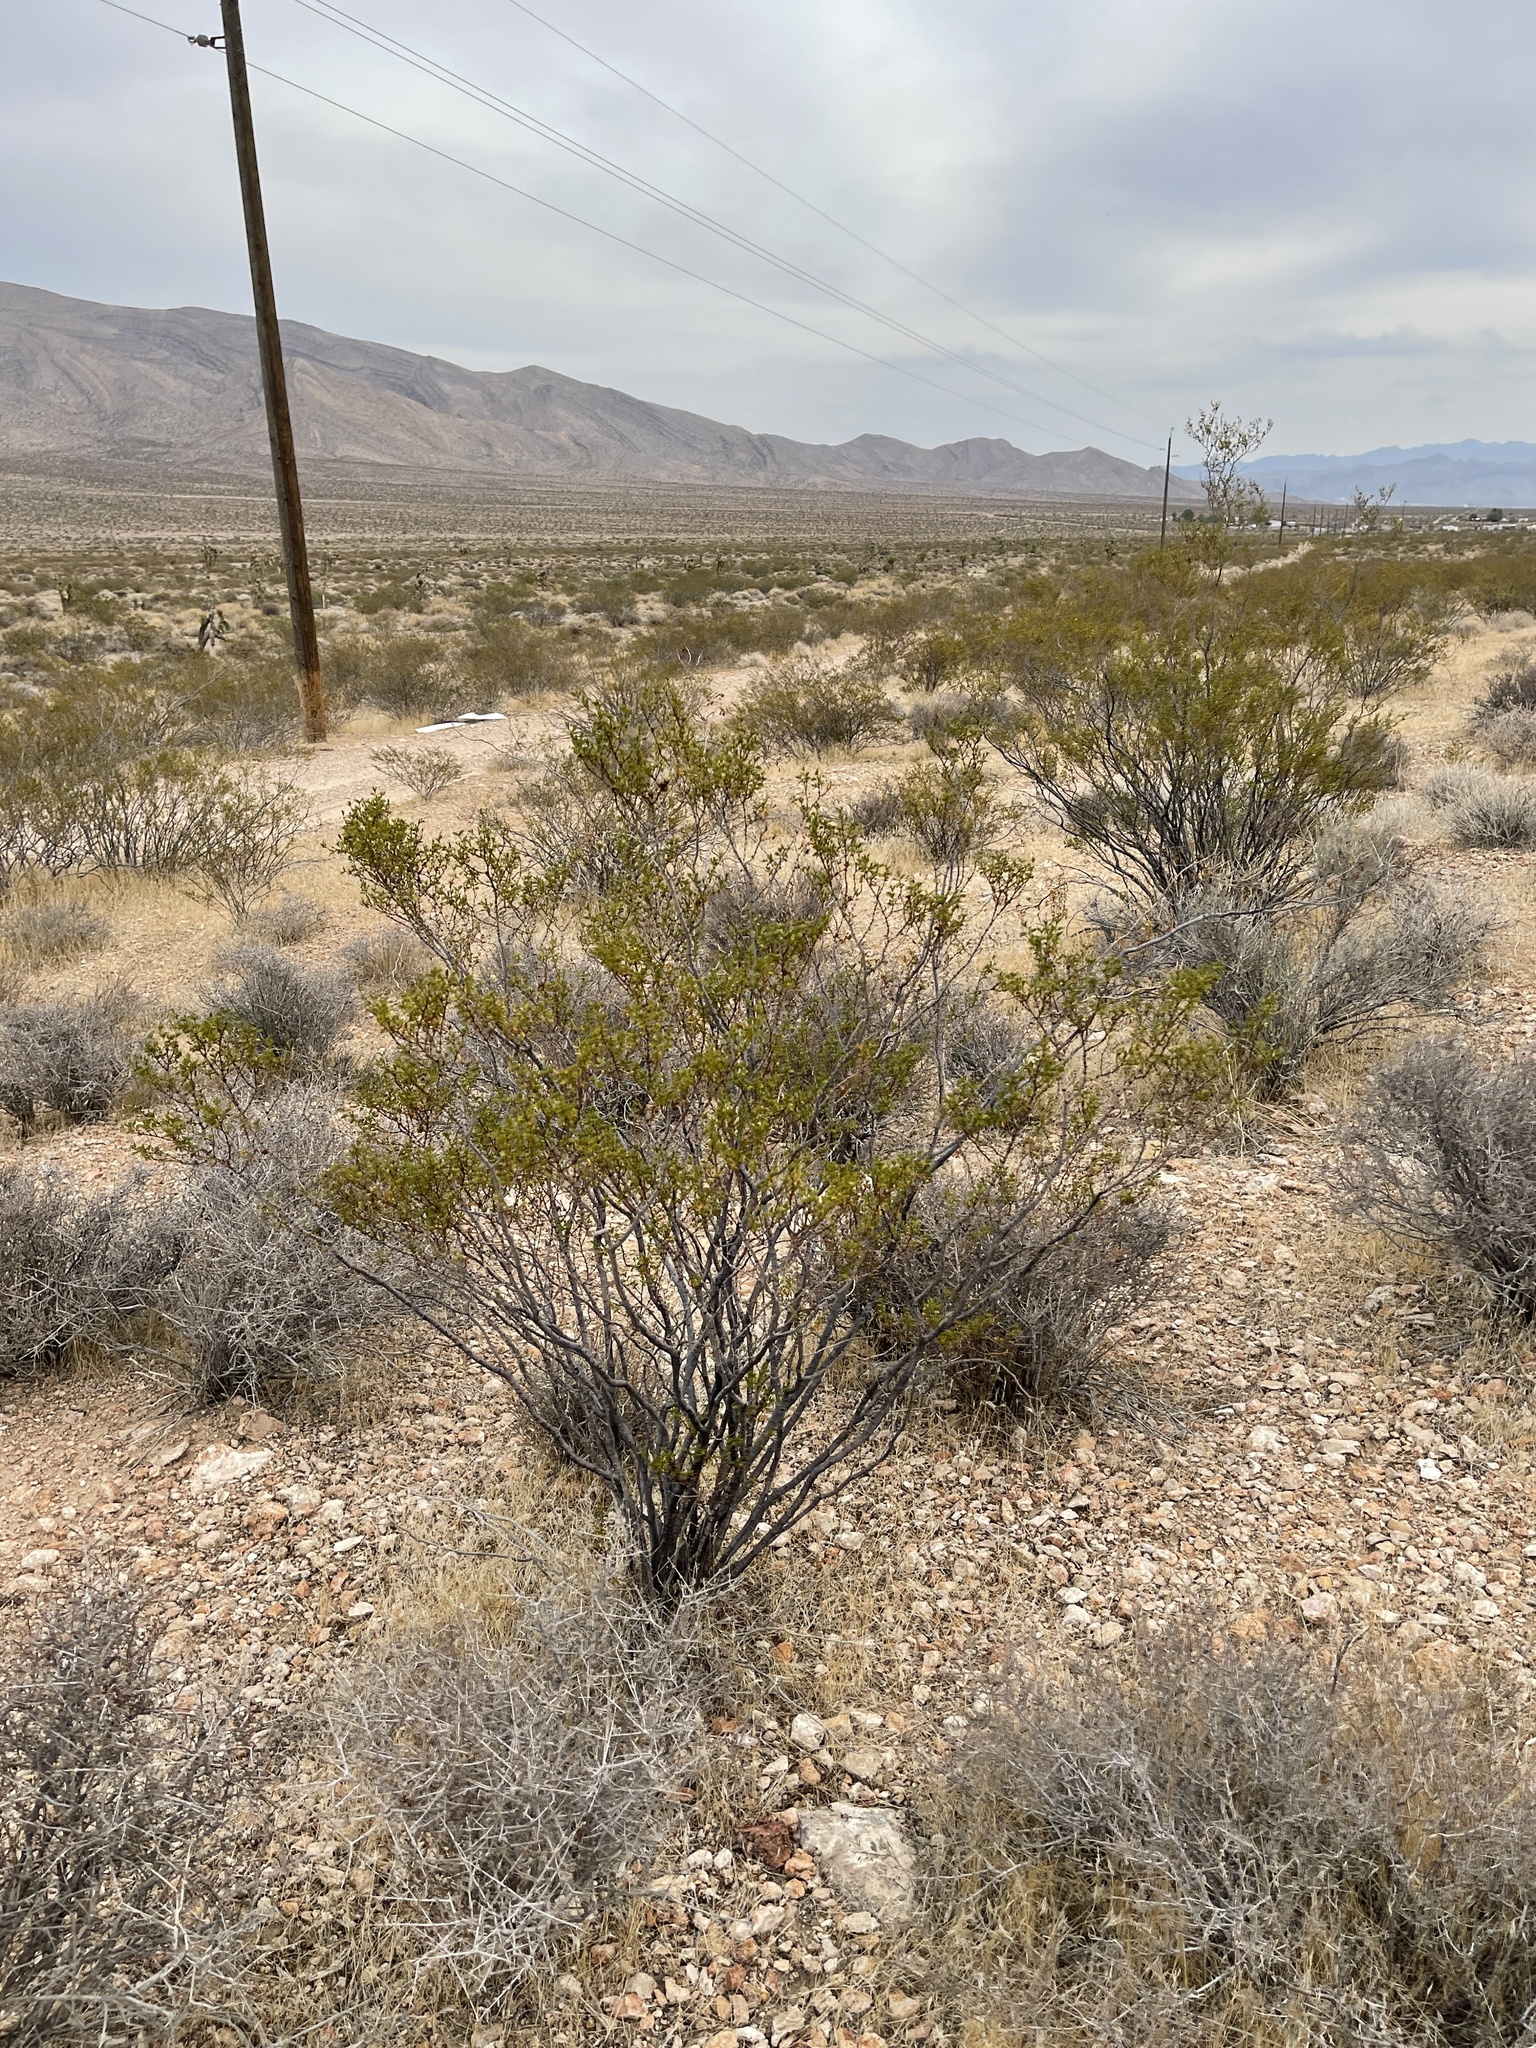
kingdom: Plantae
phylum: Tracheophyta
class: Magnoliopsida
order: Zygophyllales
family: Zygophyllaceae
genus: Larrea
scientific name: Larrea tridentata
